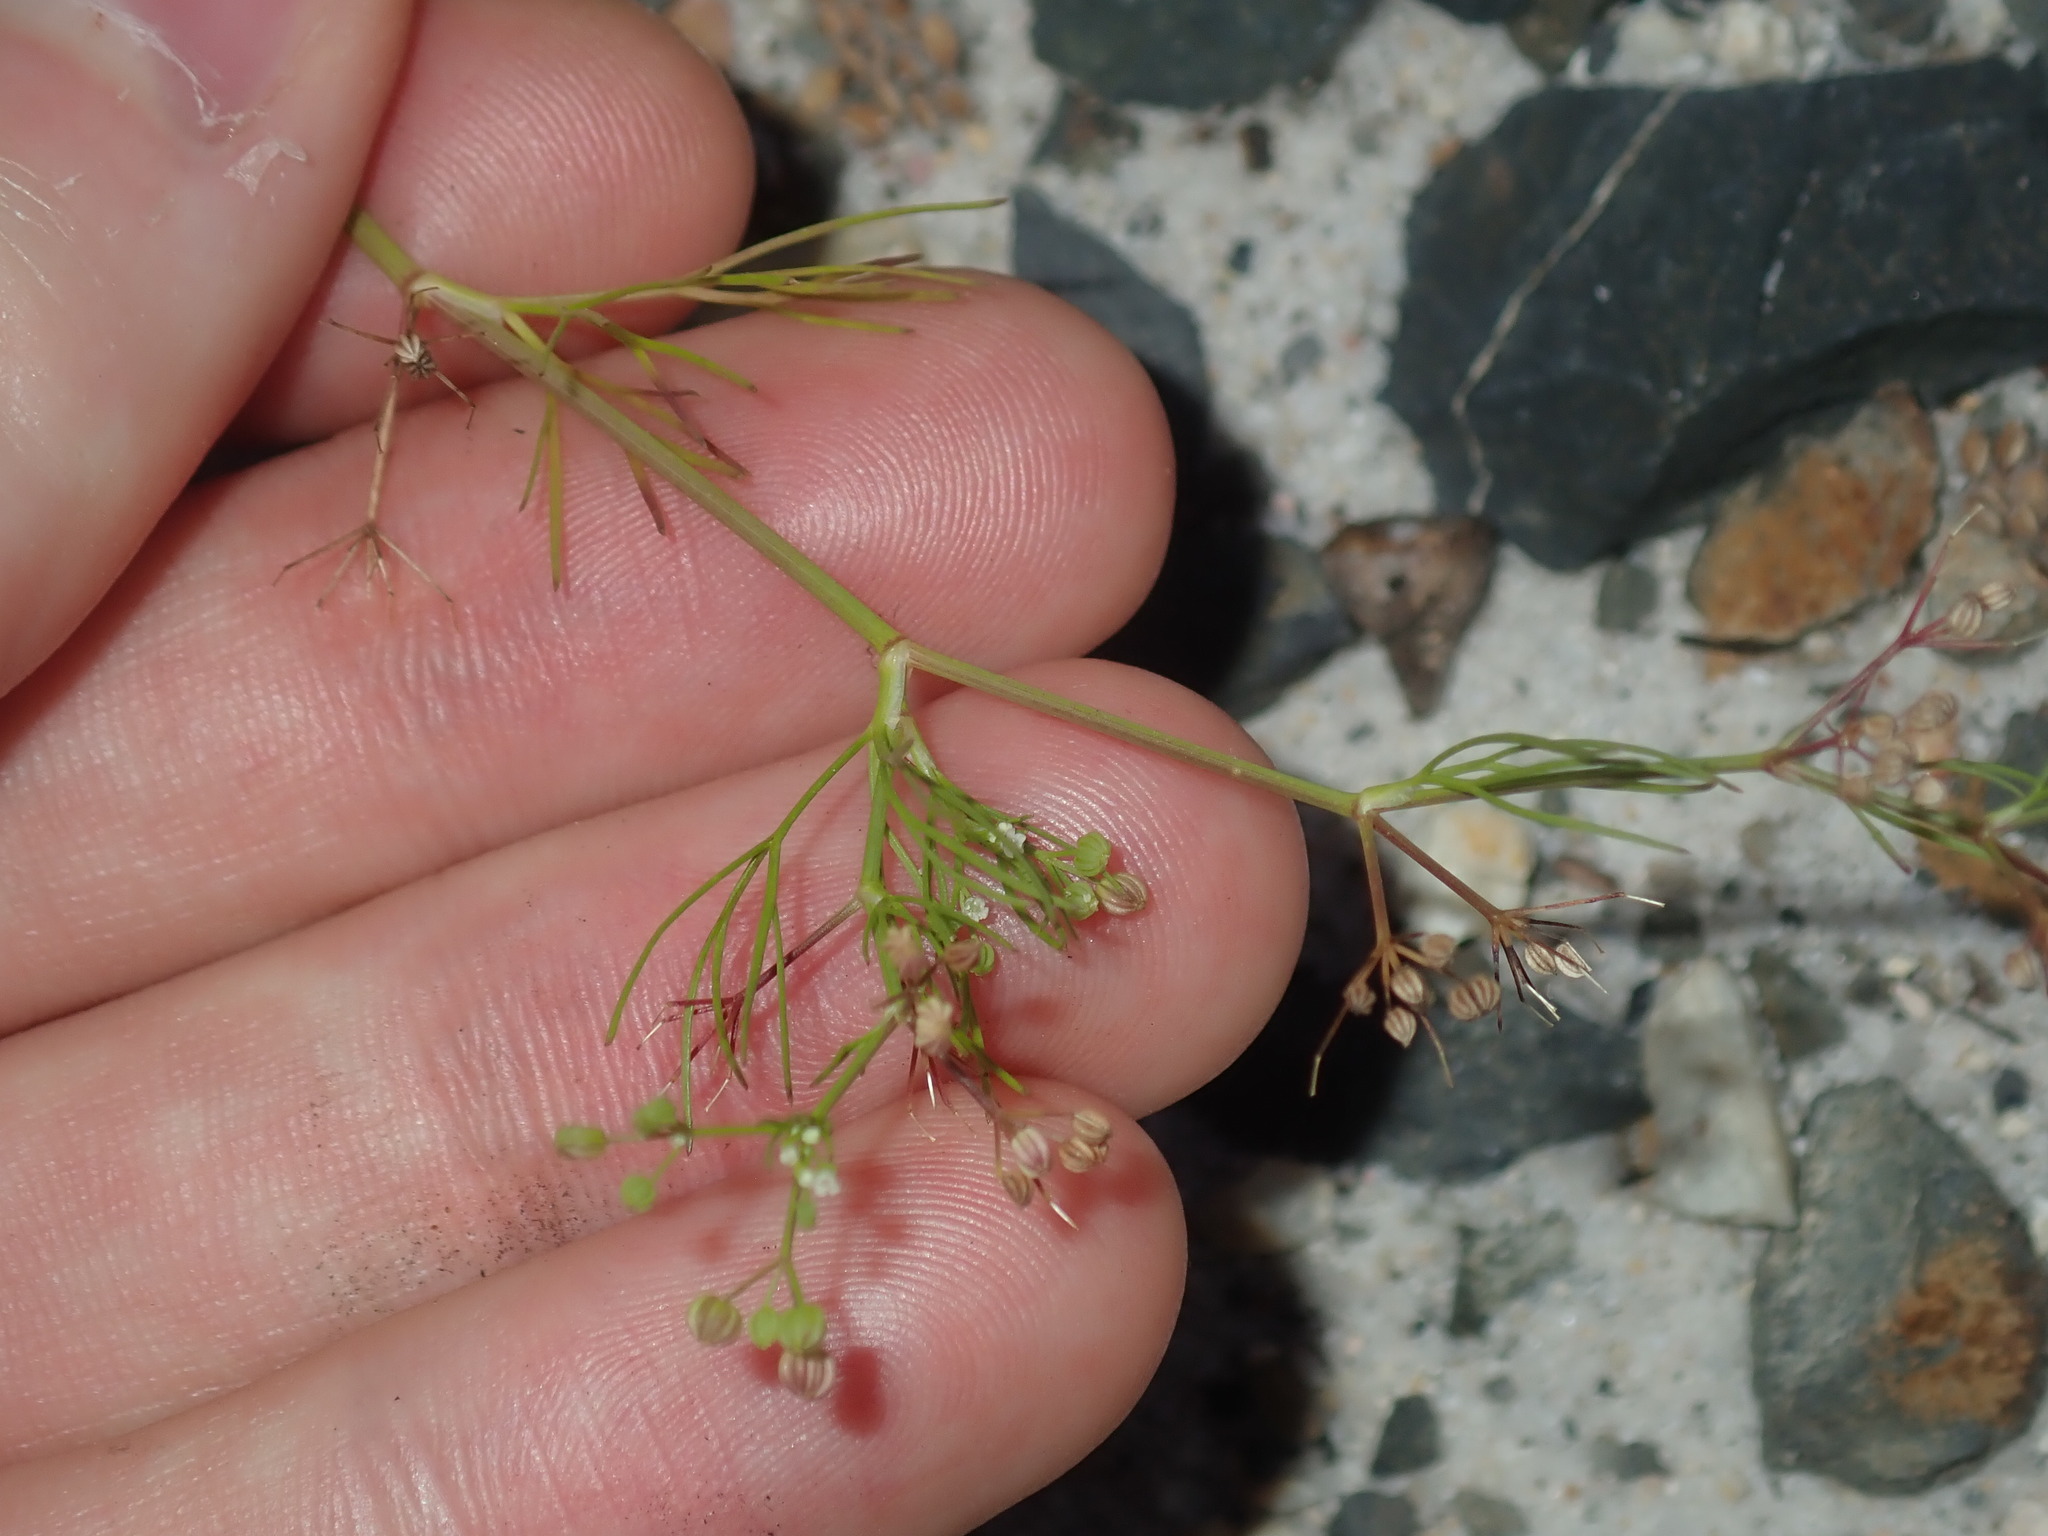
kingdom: Plantae
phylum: Tracheophyta
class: Magnoliopsida
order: Apiales
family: Apiaceae
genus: Cyclospermum
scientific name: Cyclospermum leptophyllum
